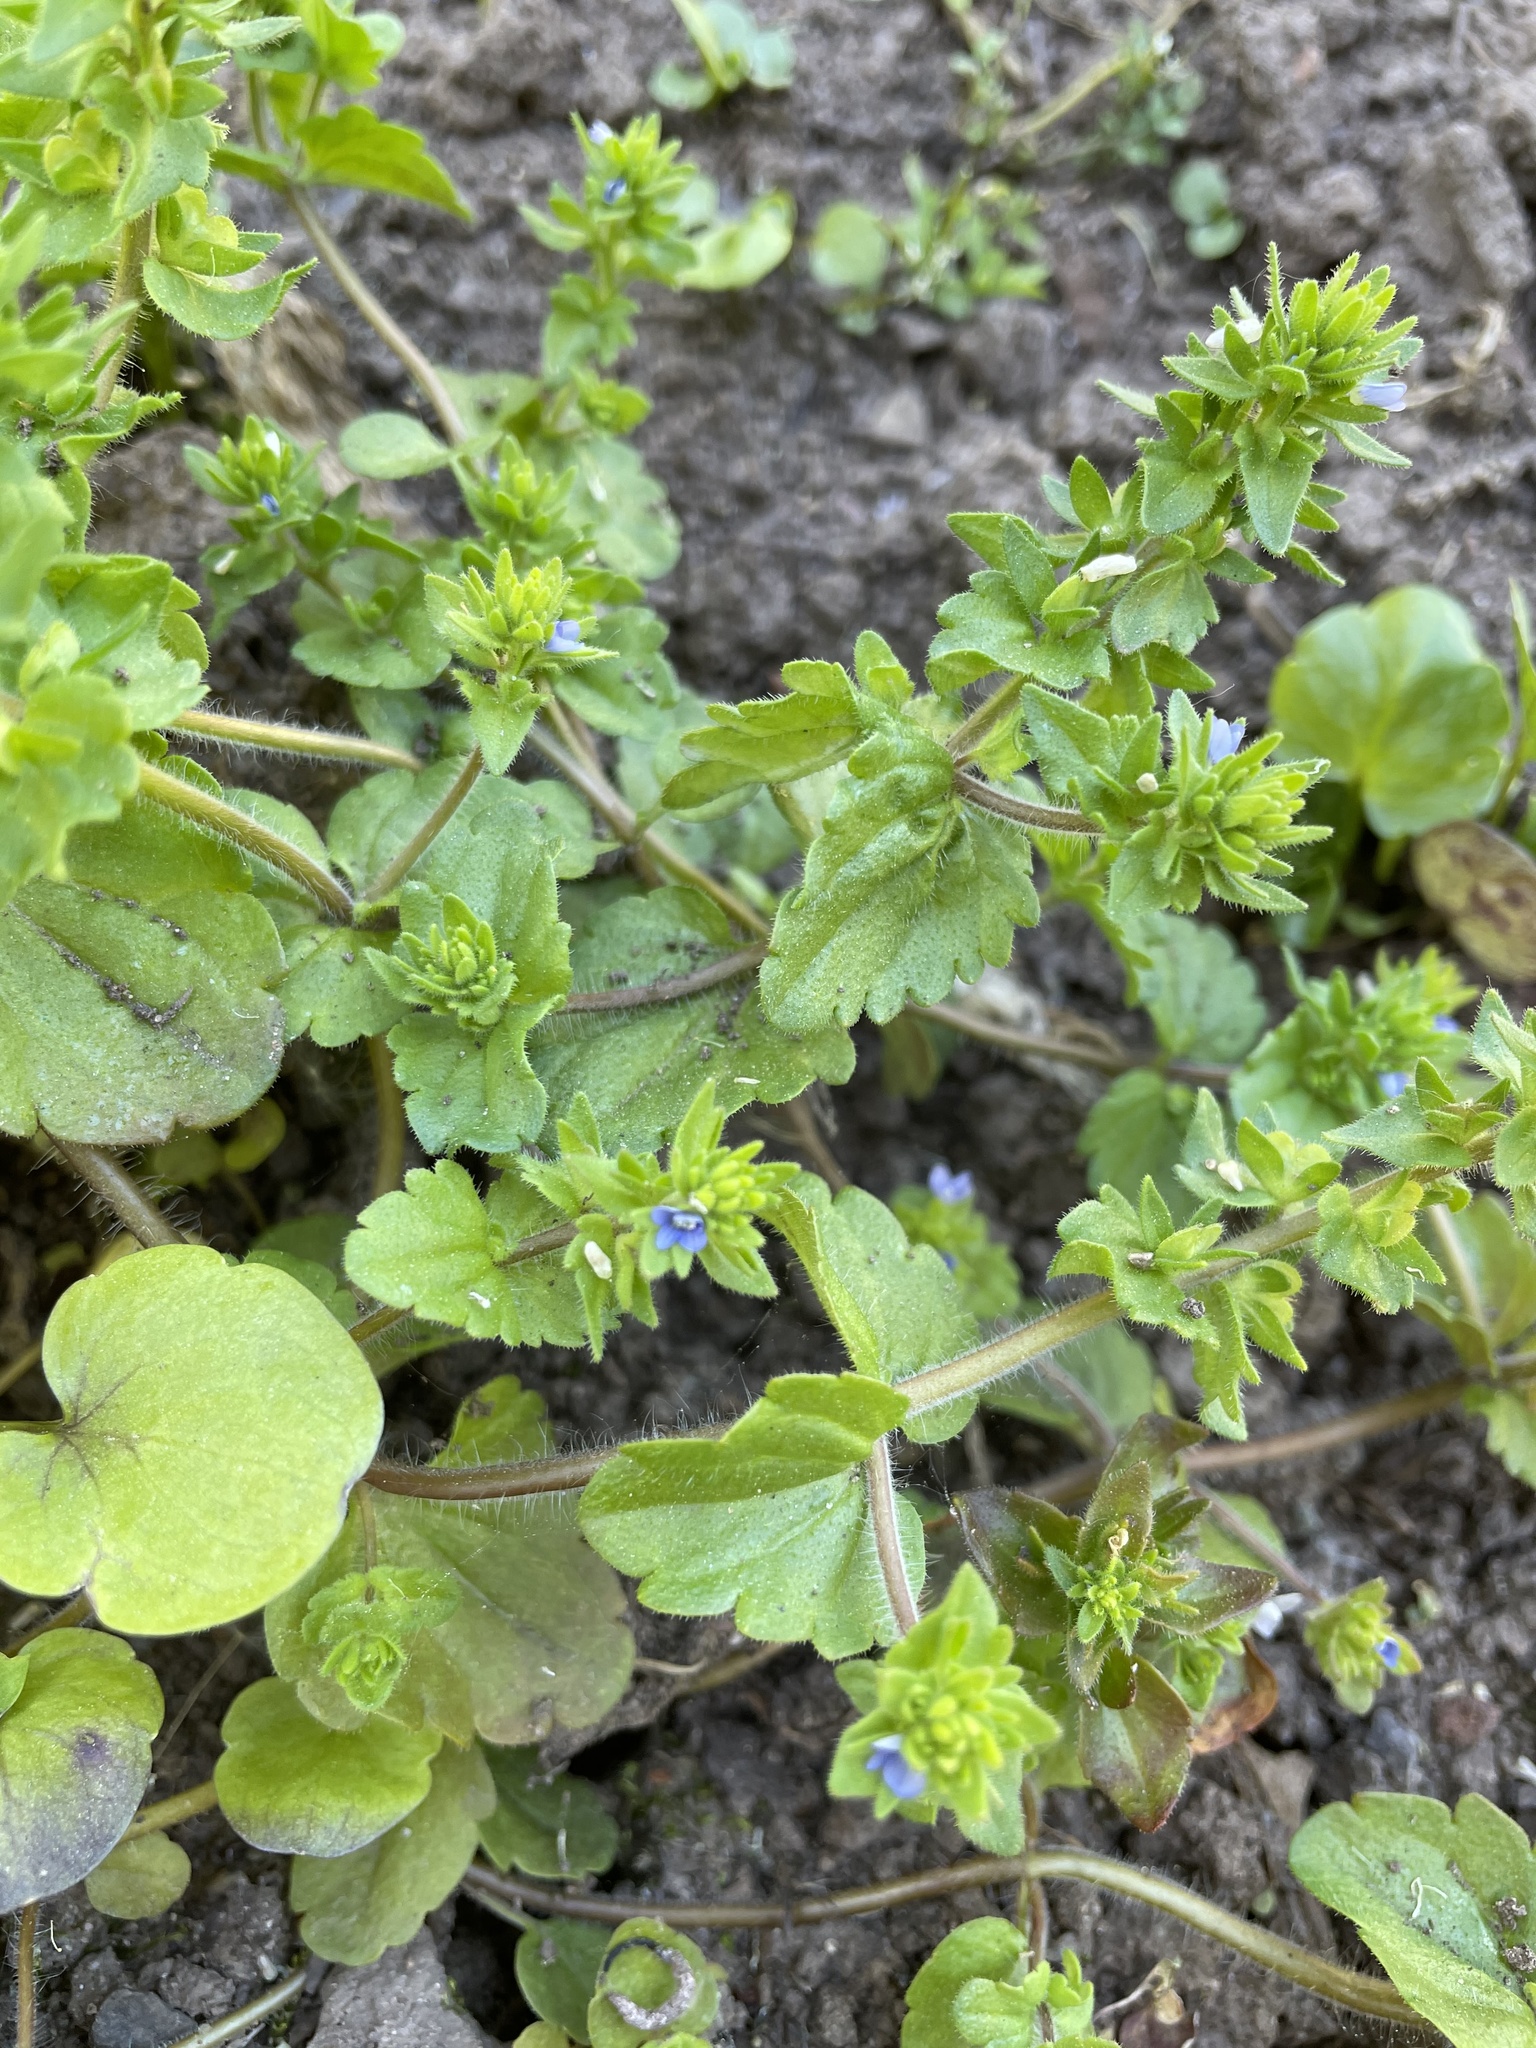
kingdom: Plantae
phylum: Tracheophyta
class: Magnoliopsida
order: Lamiales
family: Plantaginaceae
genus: Veronica
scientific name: Veronica arvensis
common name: Corn speedwell
